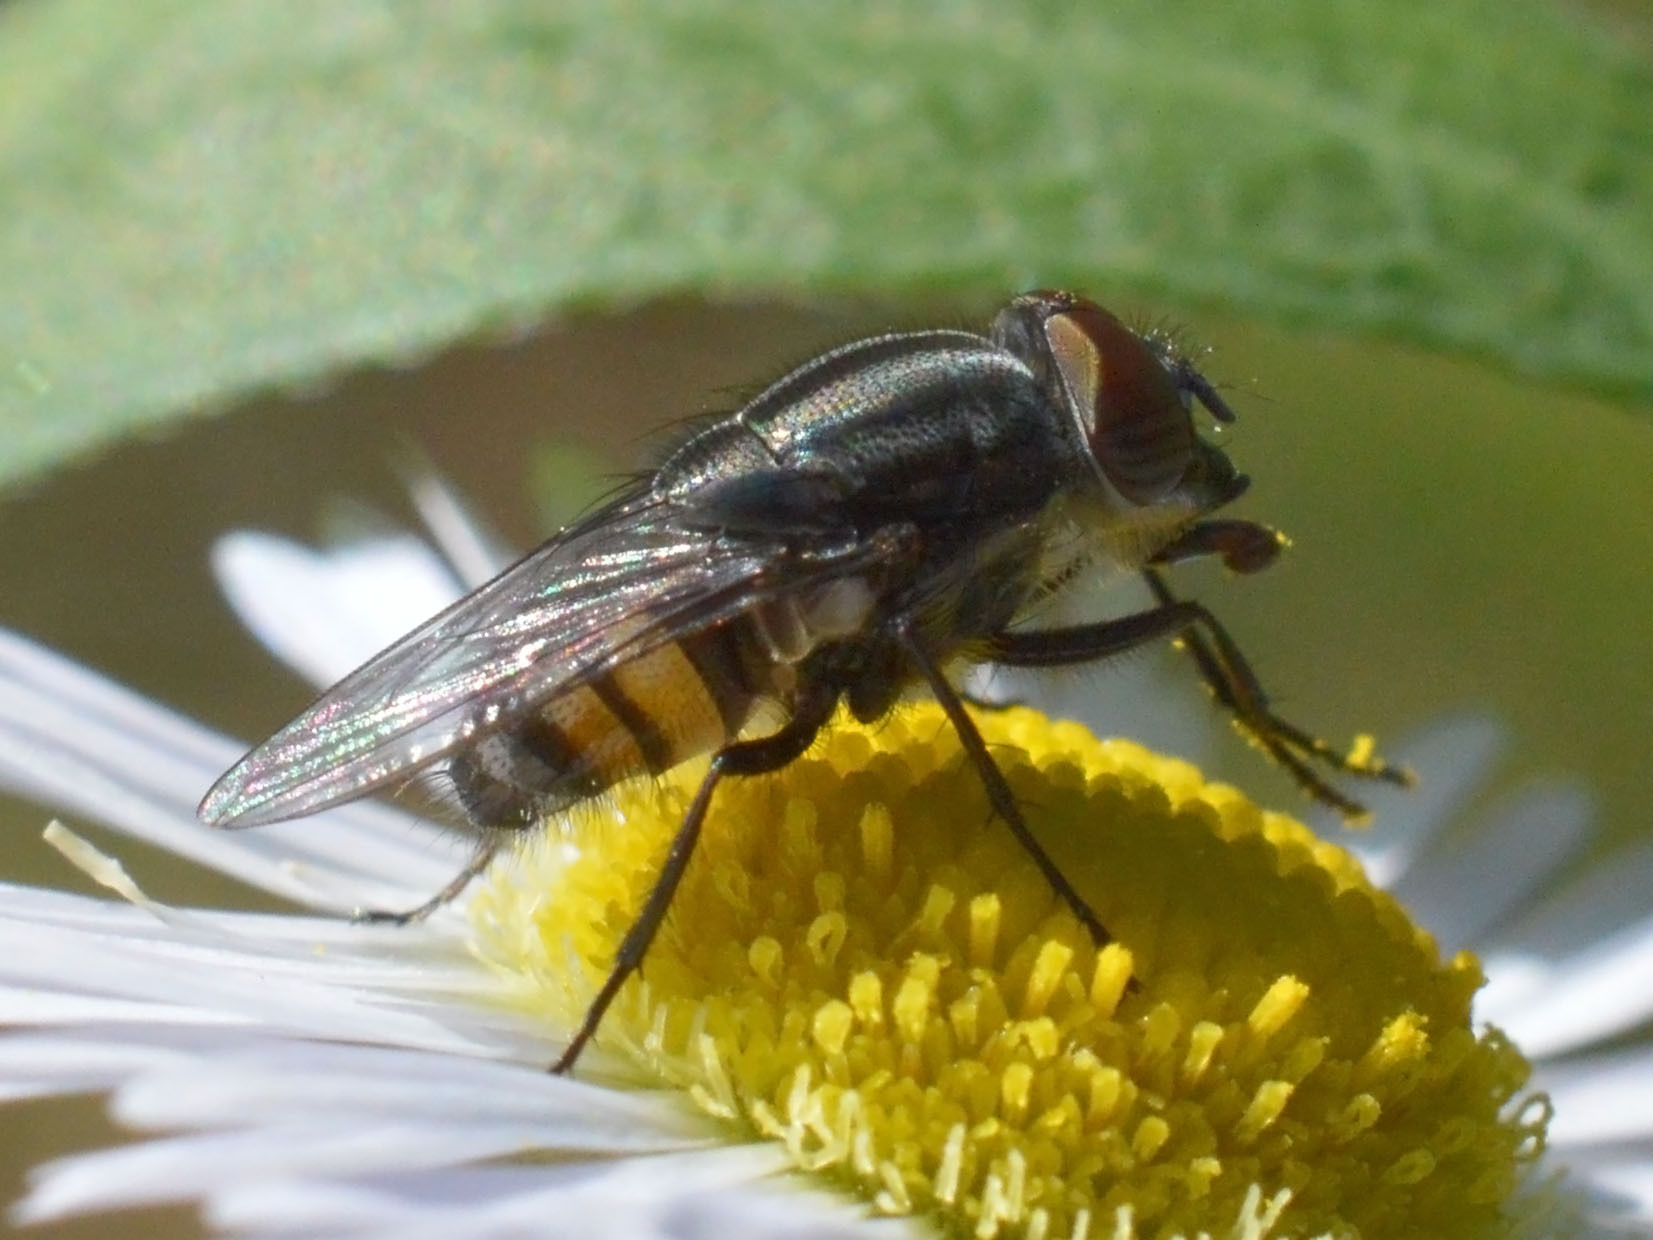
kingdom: Animalia
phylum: Arthropoda
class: Insecta
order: Diptera
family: Calliphoridae
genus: Stomorhina
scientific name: Stomorhina lunata
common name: Locust blowfly
